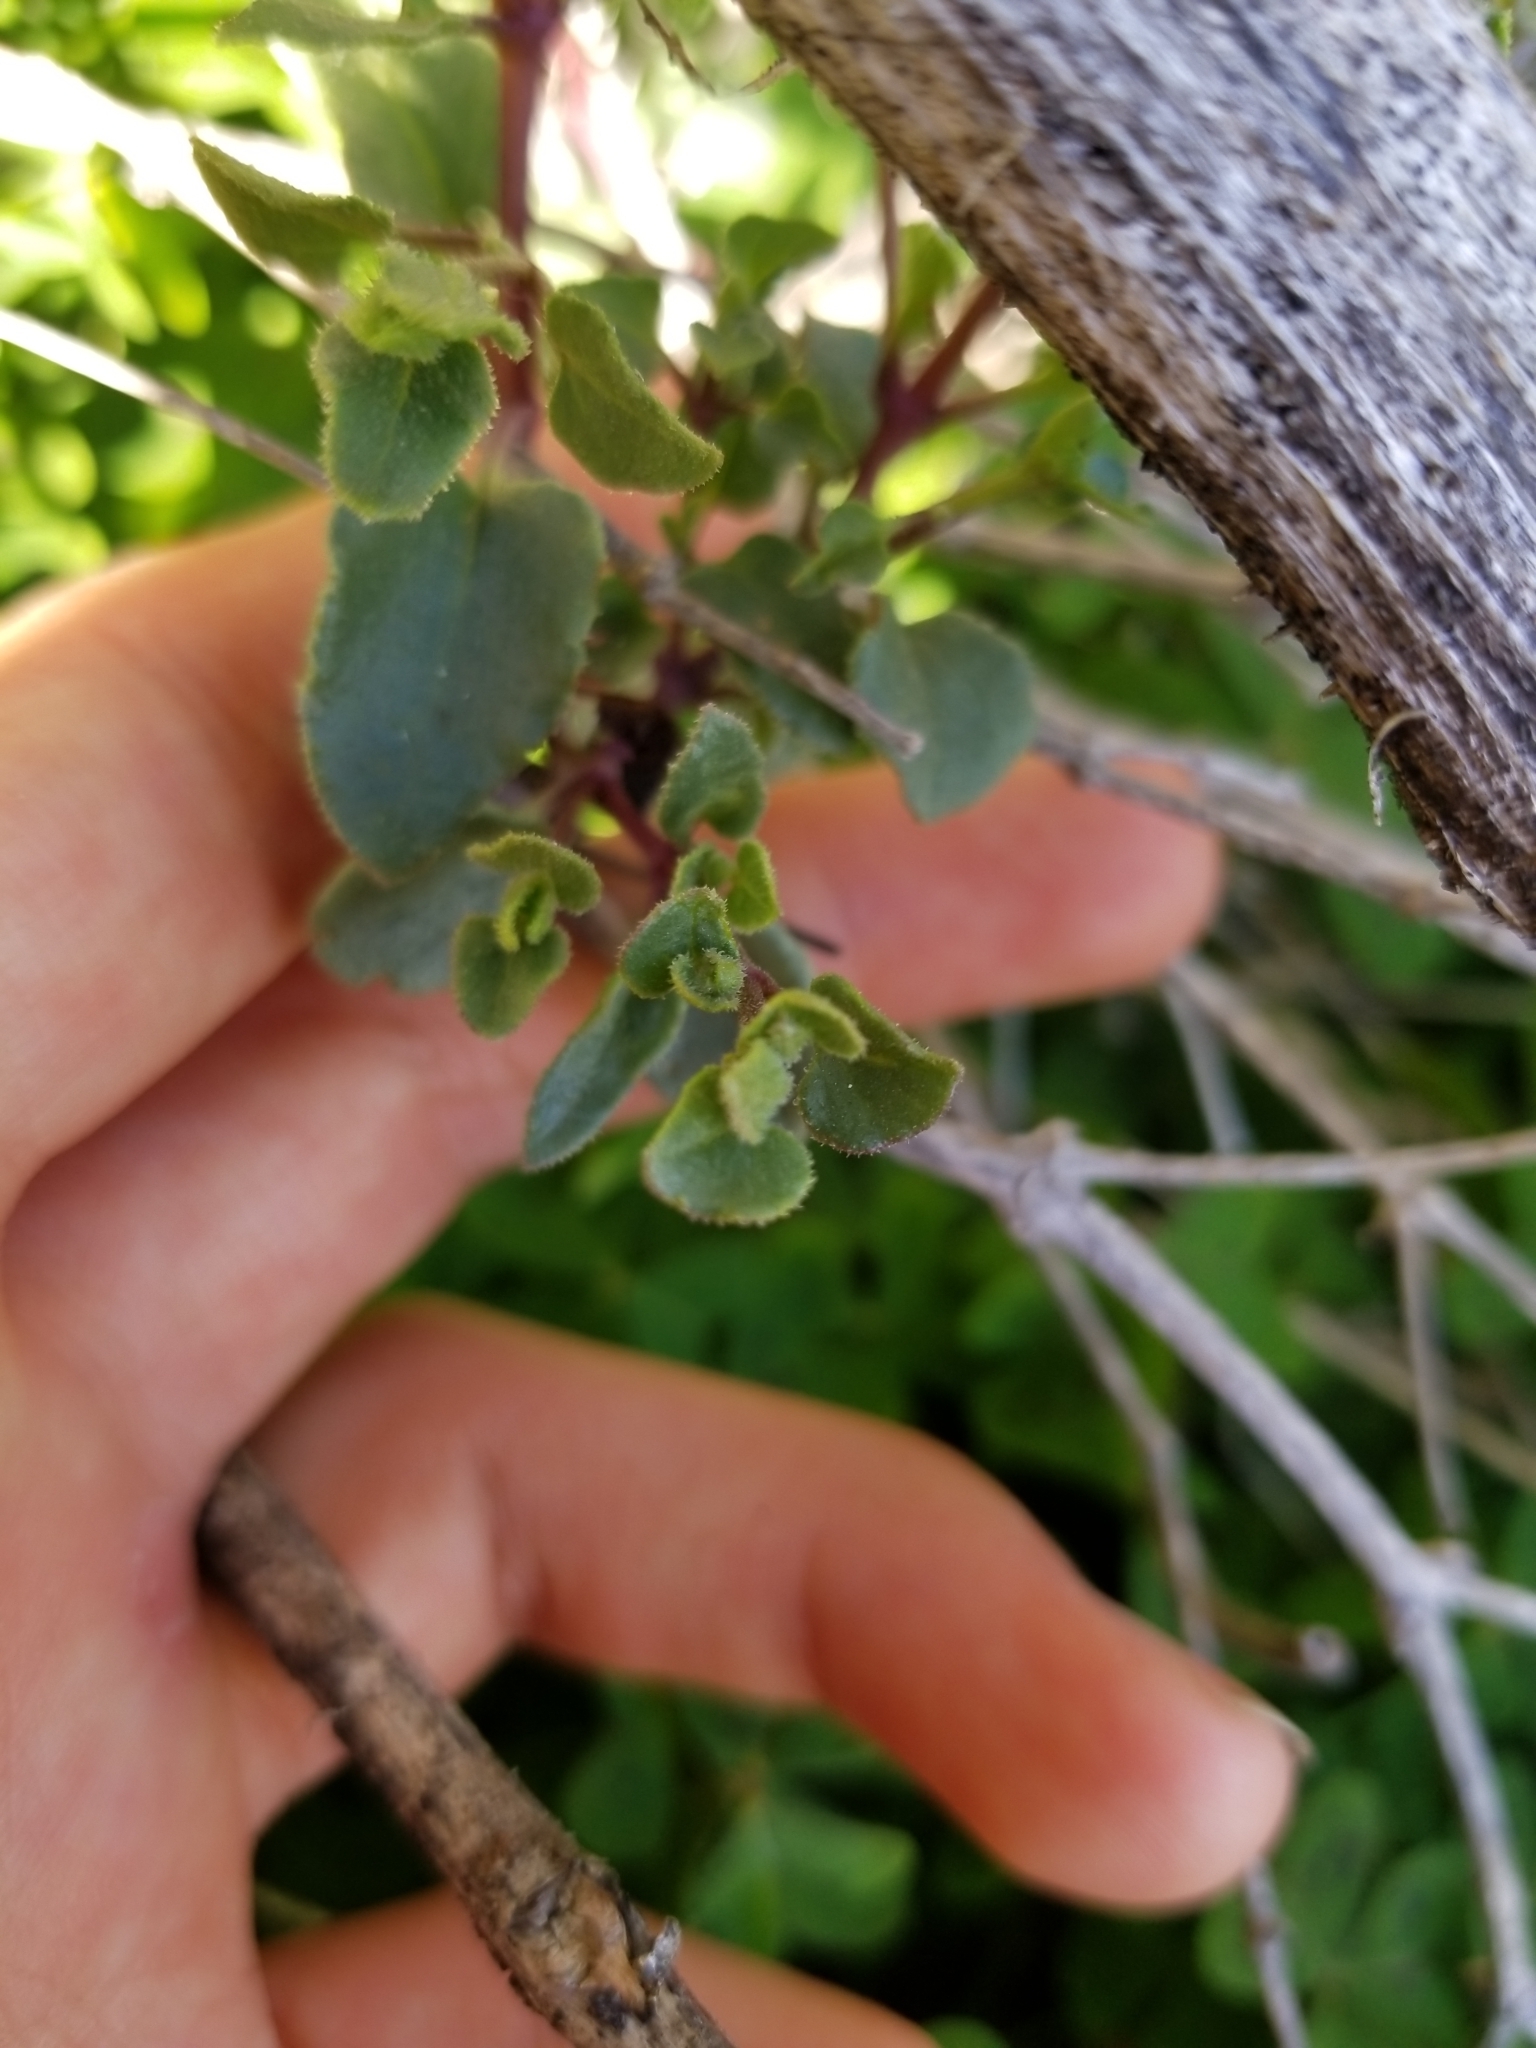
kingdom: Plantae
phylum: Tracheophyta
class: Magnoliopsida
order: Caryophyllales
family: Nyctaginaceae
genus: Mirabilis
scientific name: Mirabilis laevis
